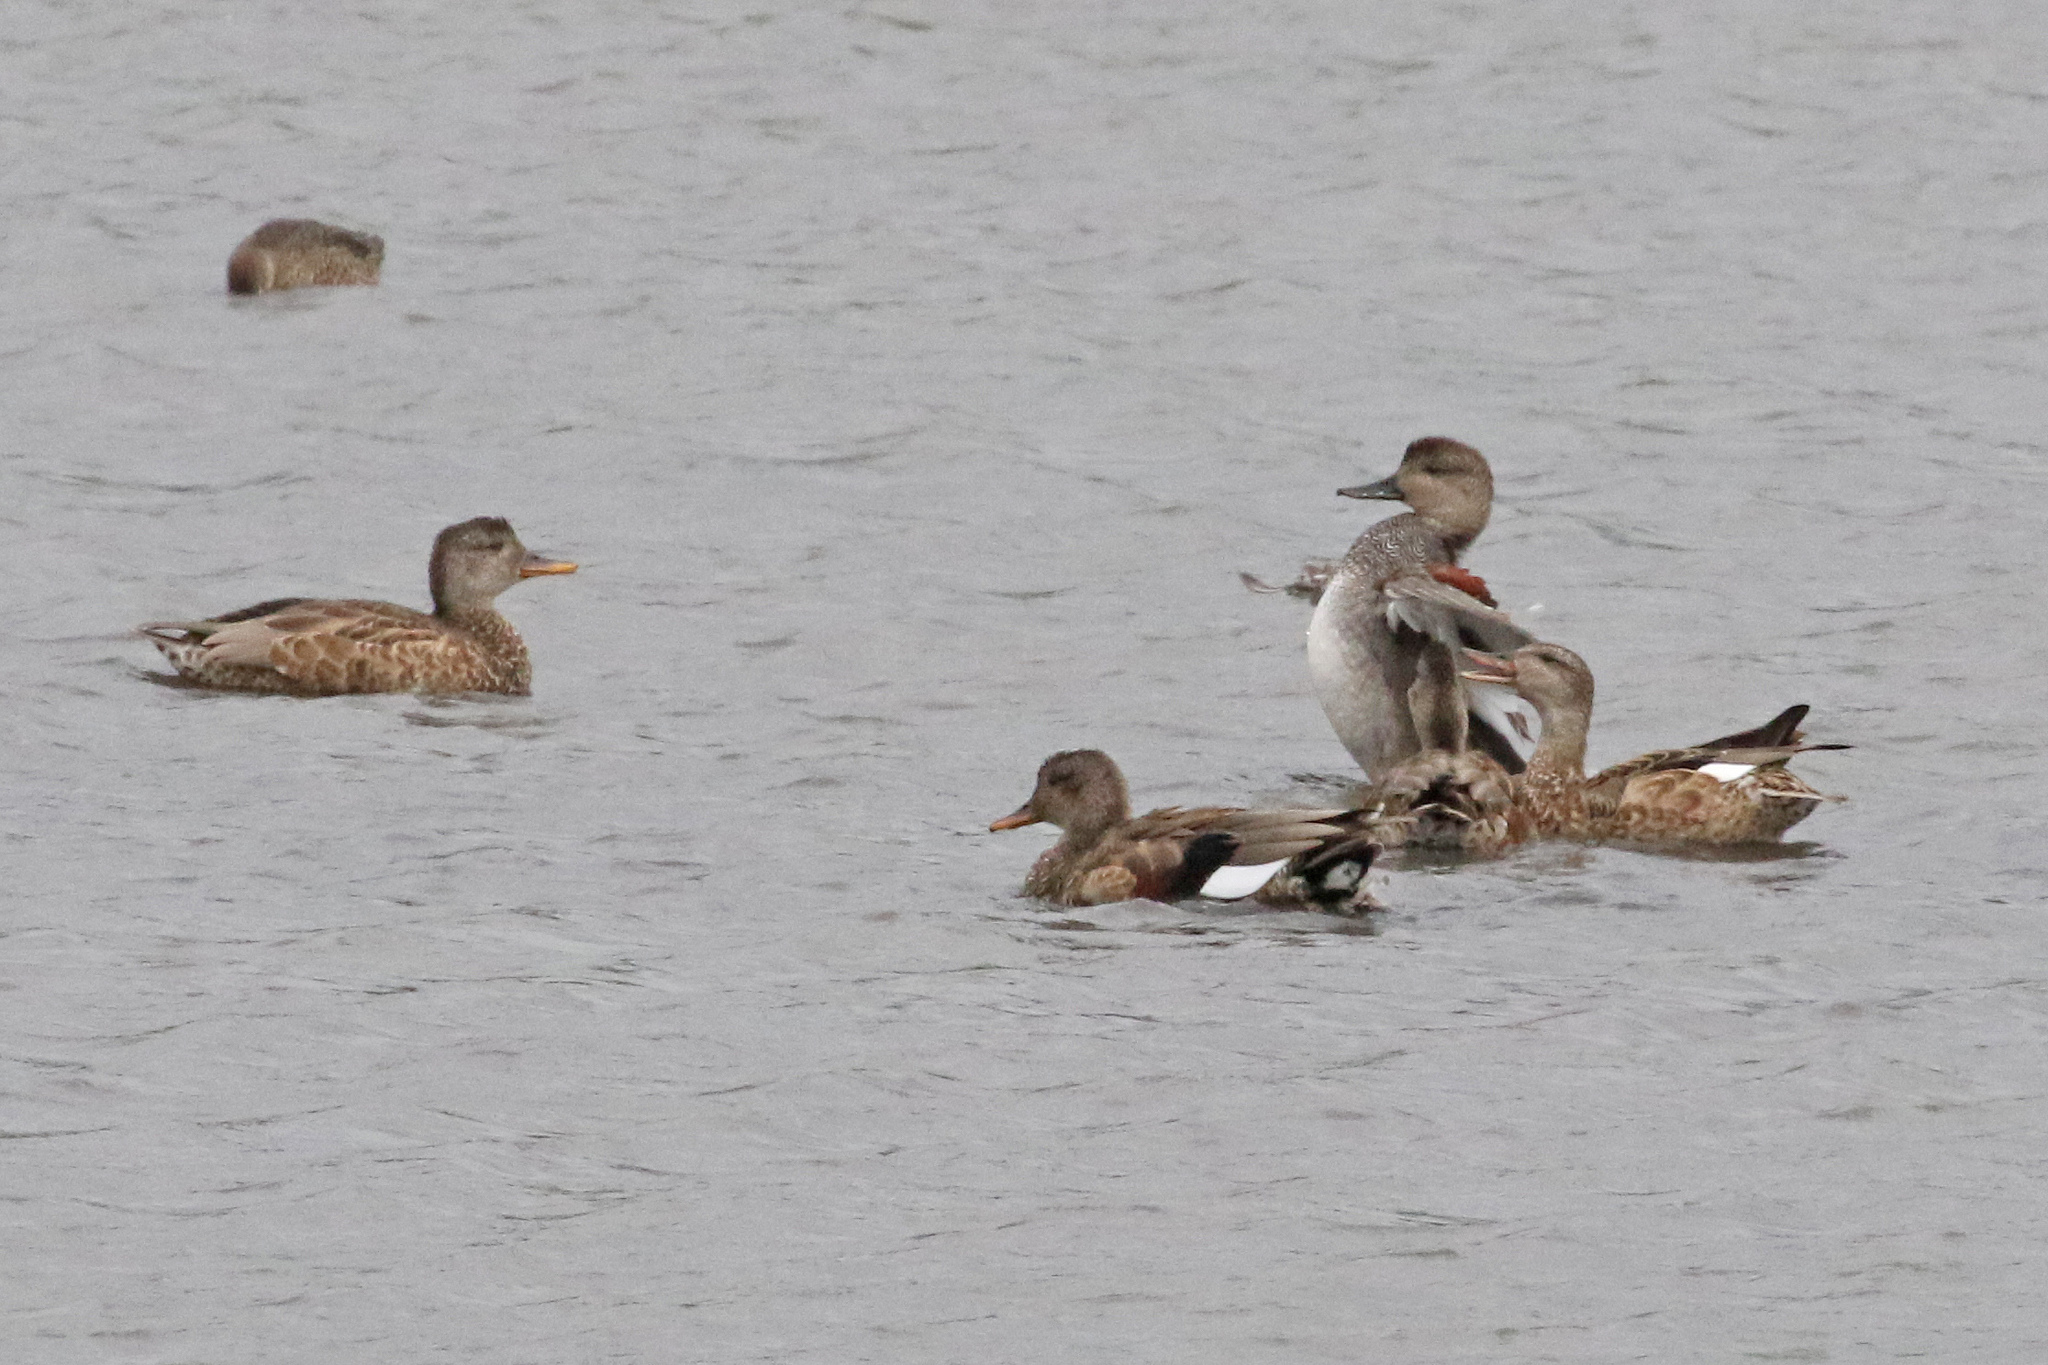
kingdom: Animalia
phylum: Chordata
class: Aves
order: Anseriformes
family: Anatidae
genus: Mareca
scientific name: Mareca strepera
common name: Gadwall
